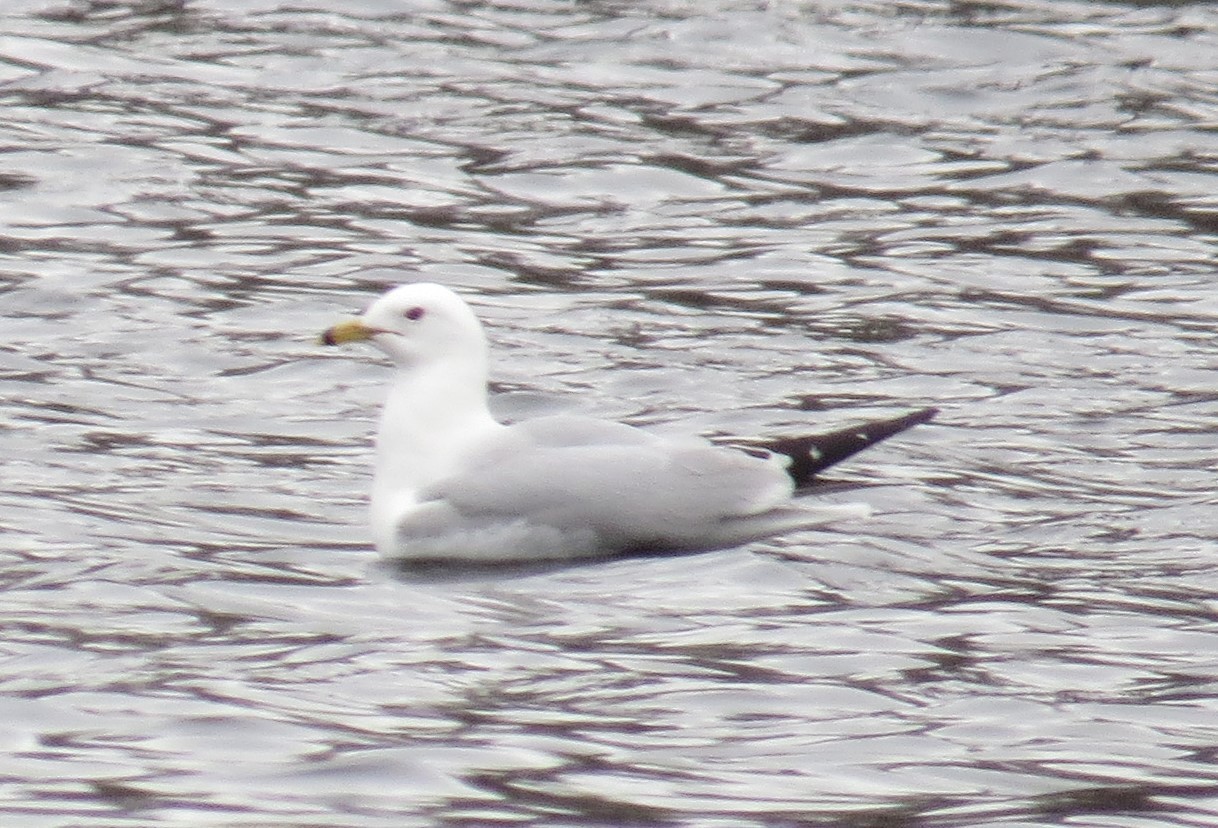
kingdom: Animalia
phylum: Chordata
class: Aves
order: Charadriiformes
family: Laridae
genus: Larus
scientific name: Larus delawarensis
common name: Ring-billed gull
